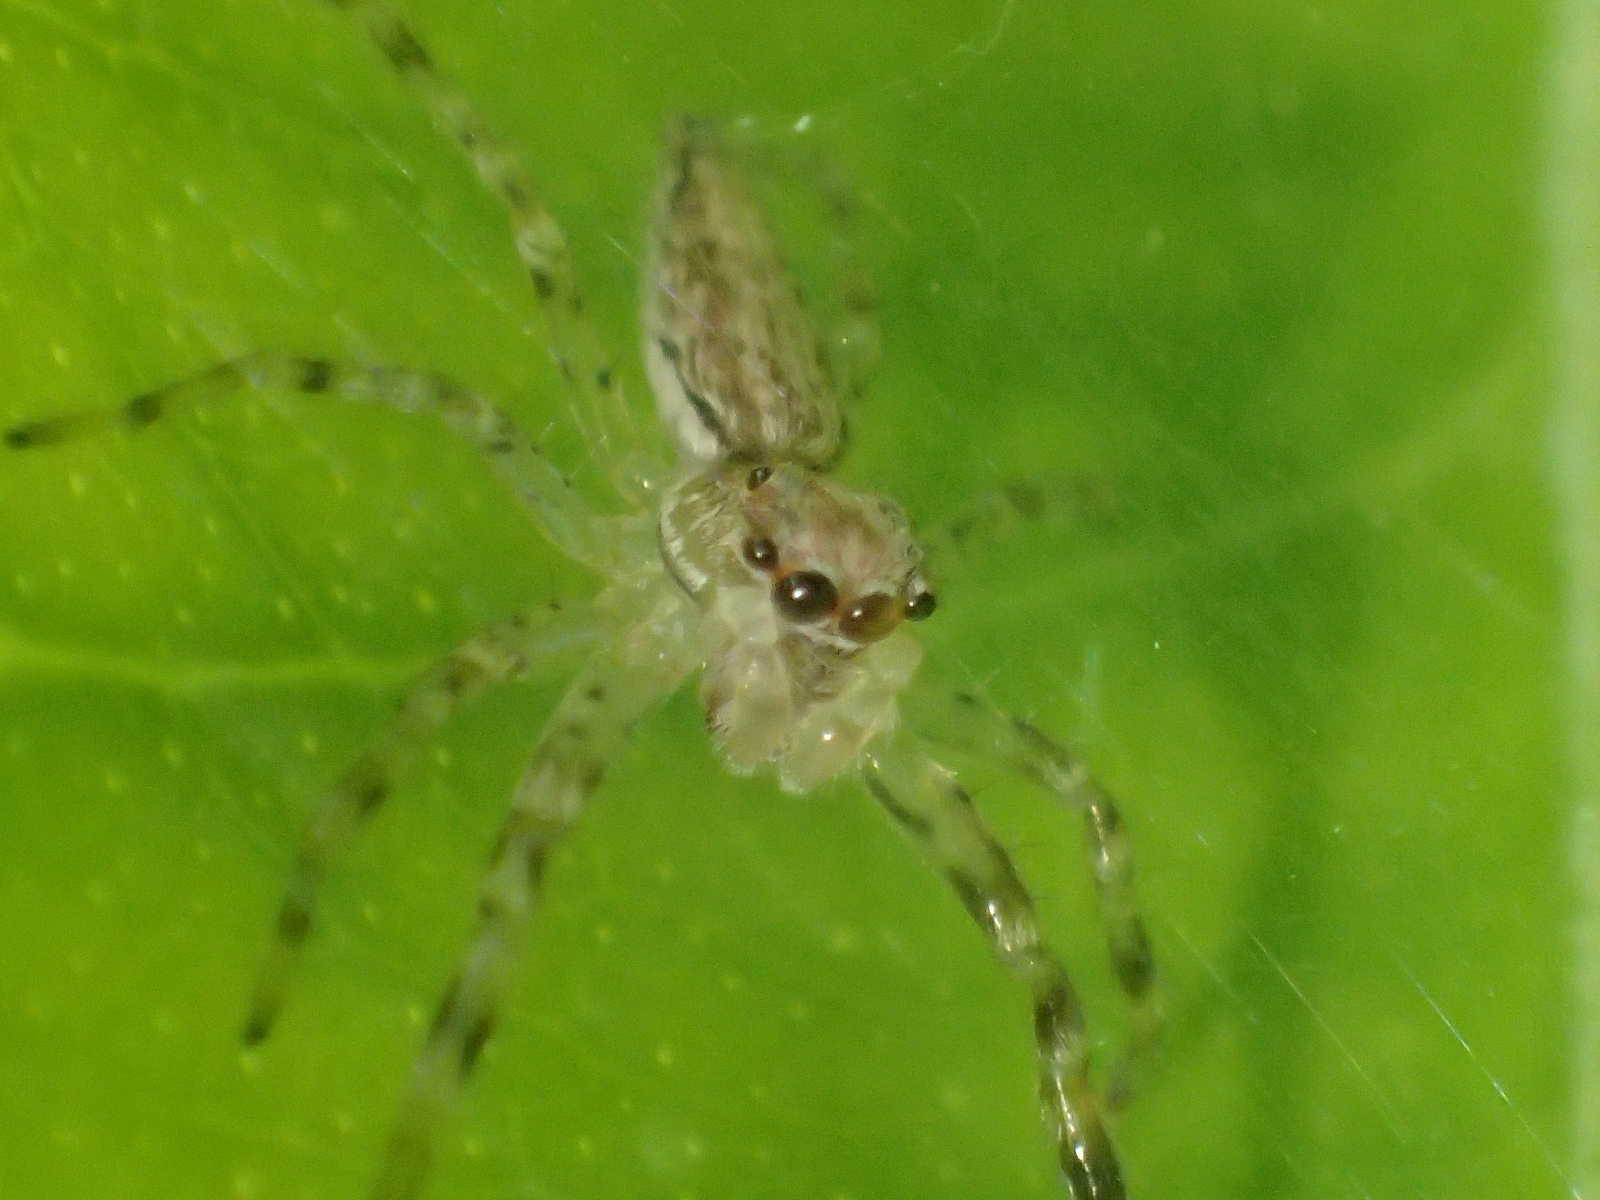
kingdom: Animalia
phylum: Arthropoda
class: Arachnida
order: Araneae
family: Salticidae
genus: Helpis
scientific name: Helpis minitabunda
